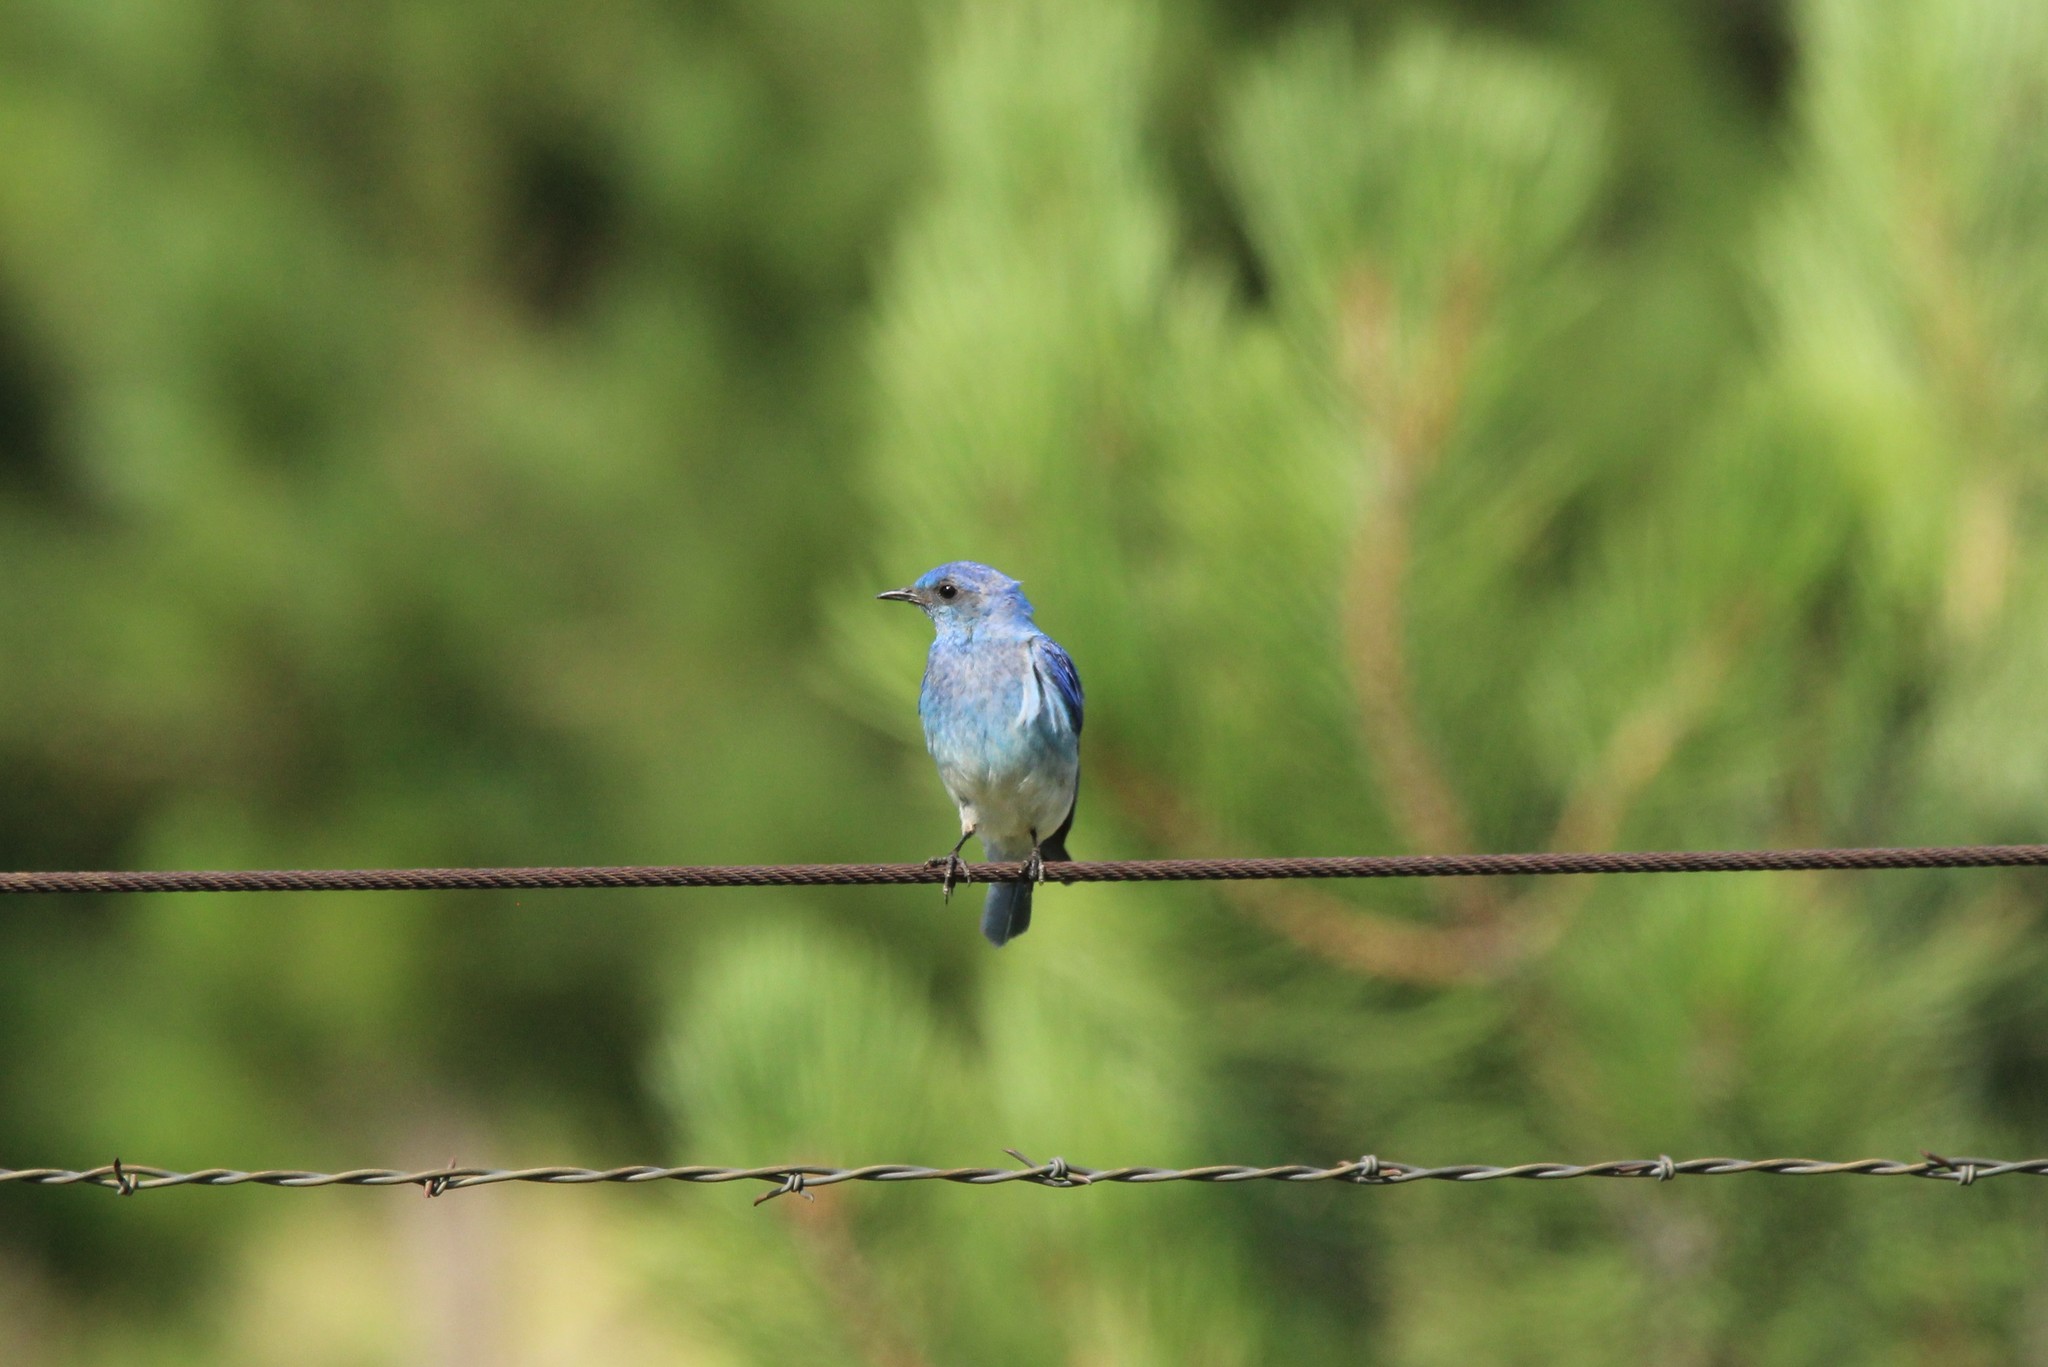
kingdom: Animalia
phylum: Chordata
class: Aves
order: Passeriformes
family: Turdidae
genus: Sialia
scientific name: Sialia currucoides
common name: Mountain bluebird
